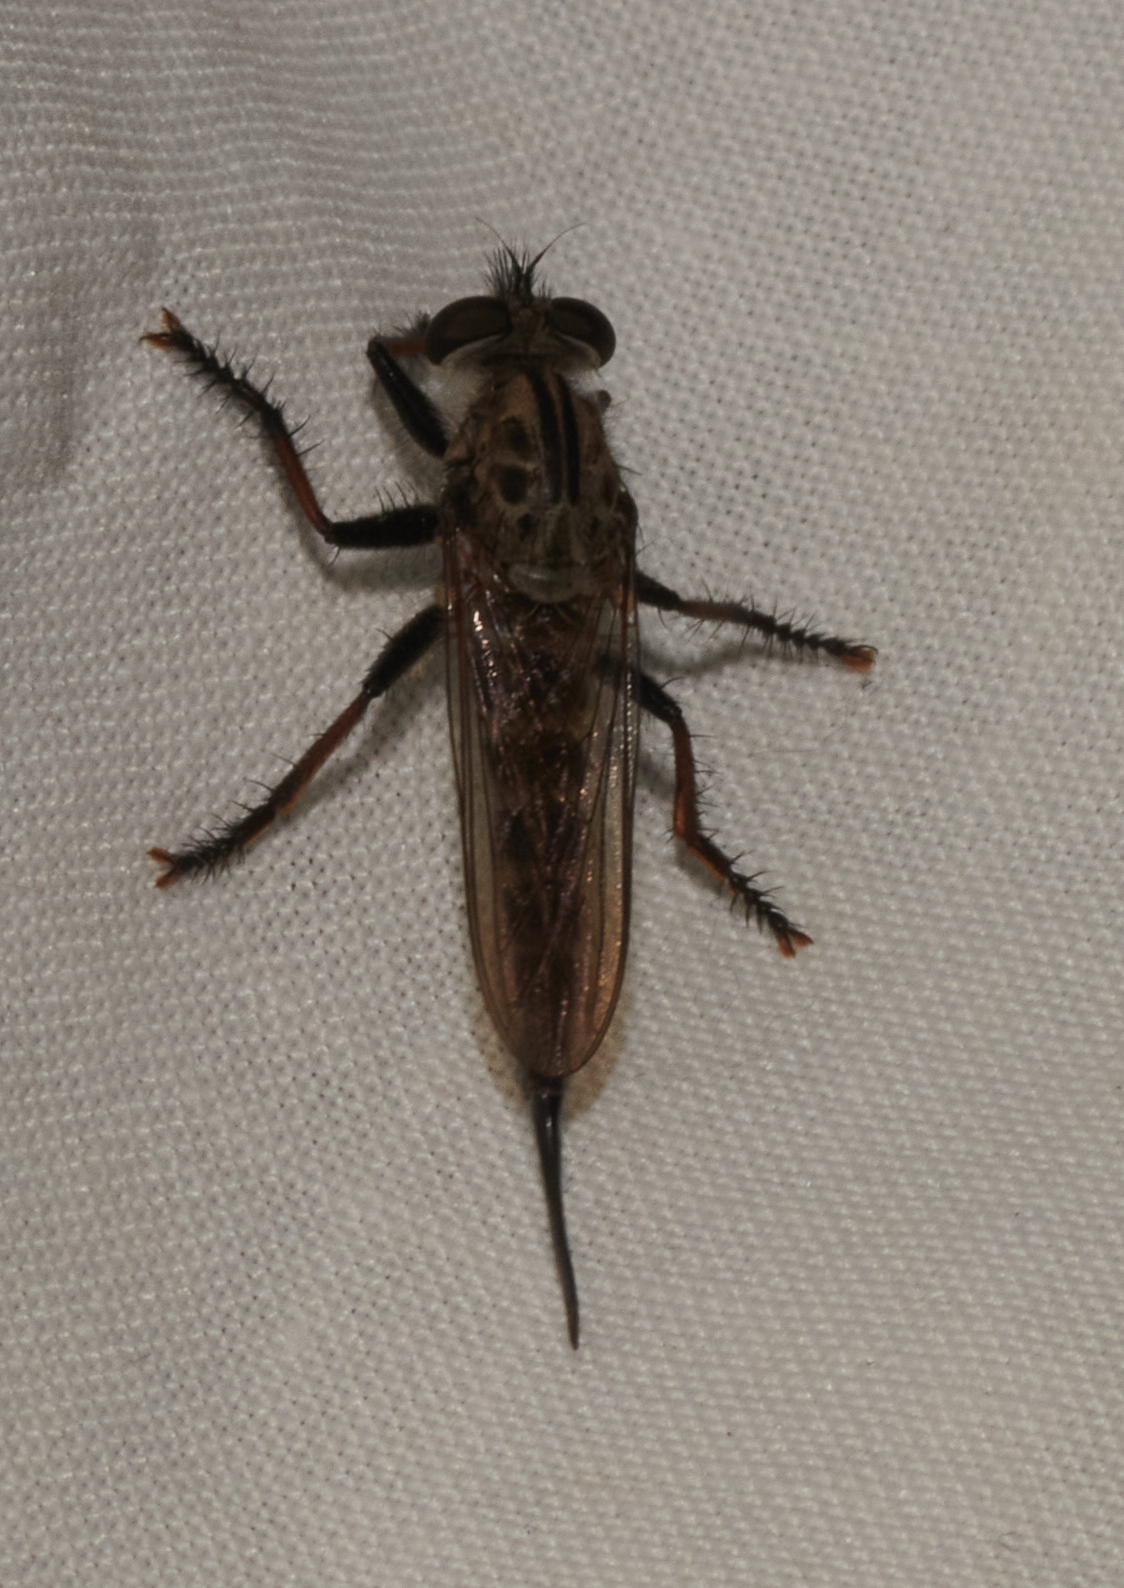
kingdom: Animalia
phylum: Arthropoda
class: Insecta
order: Diptera
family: Asilidae
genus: Efferia
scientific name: Efferia aestuans
